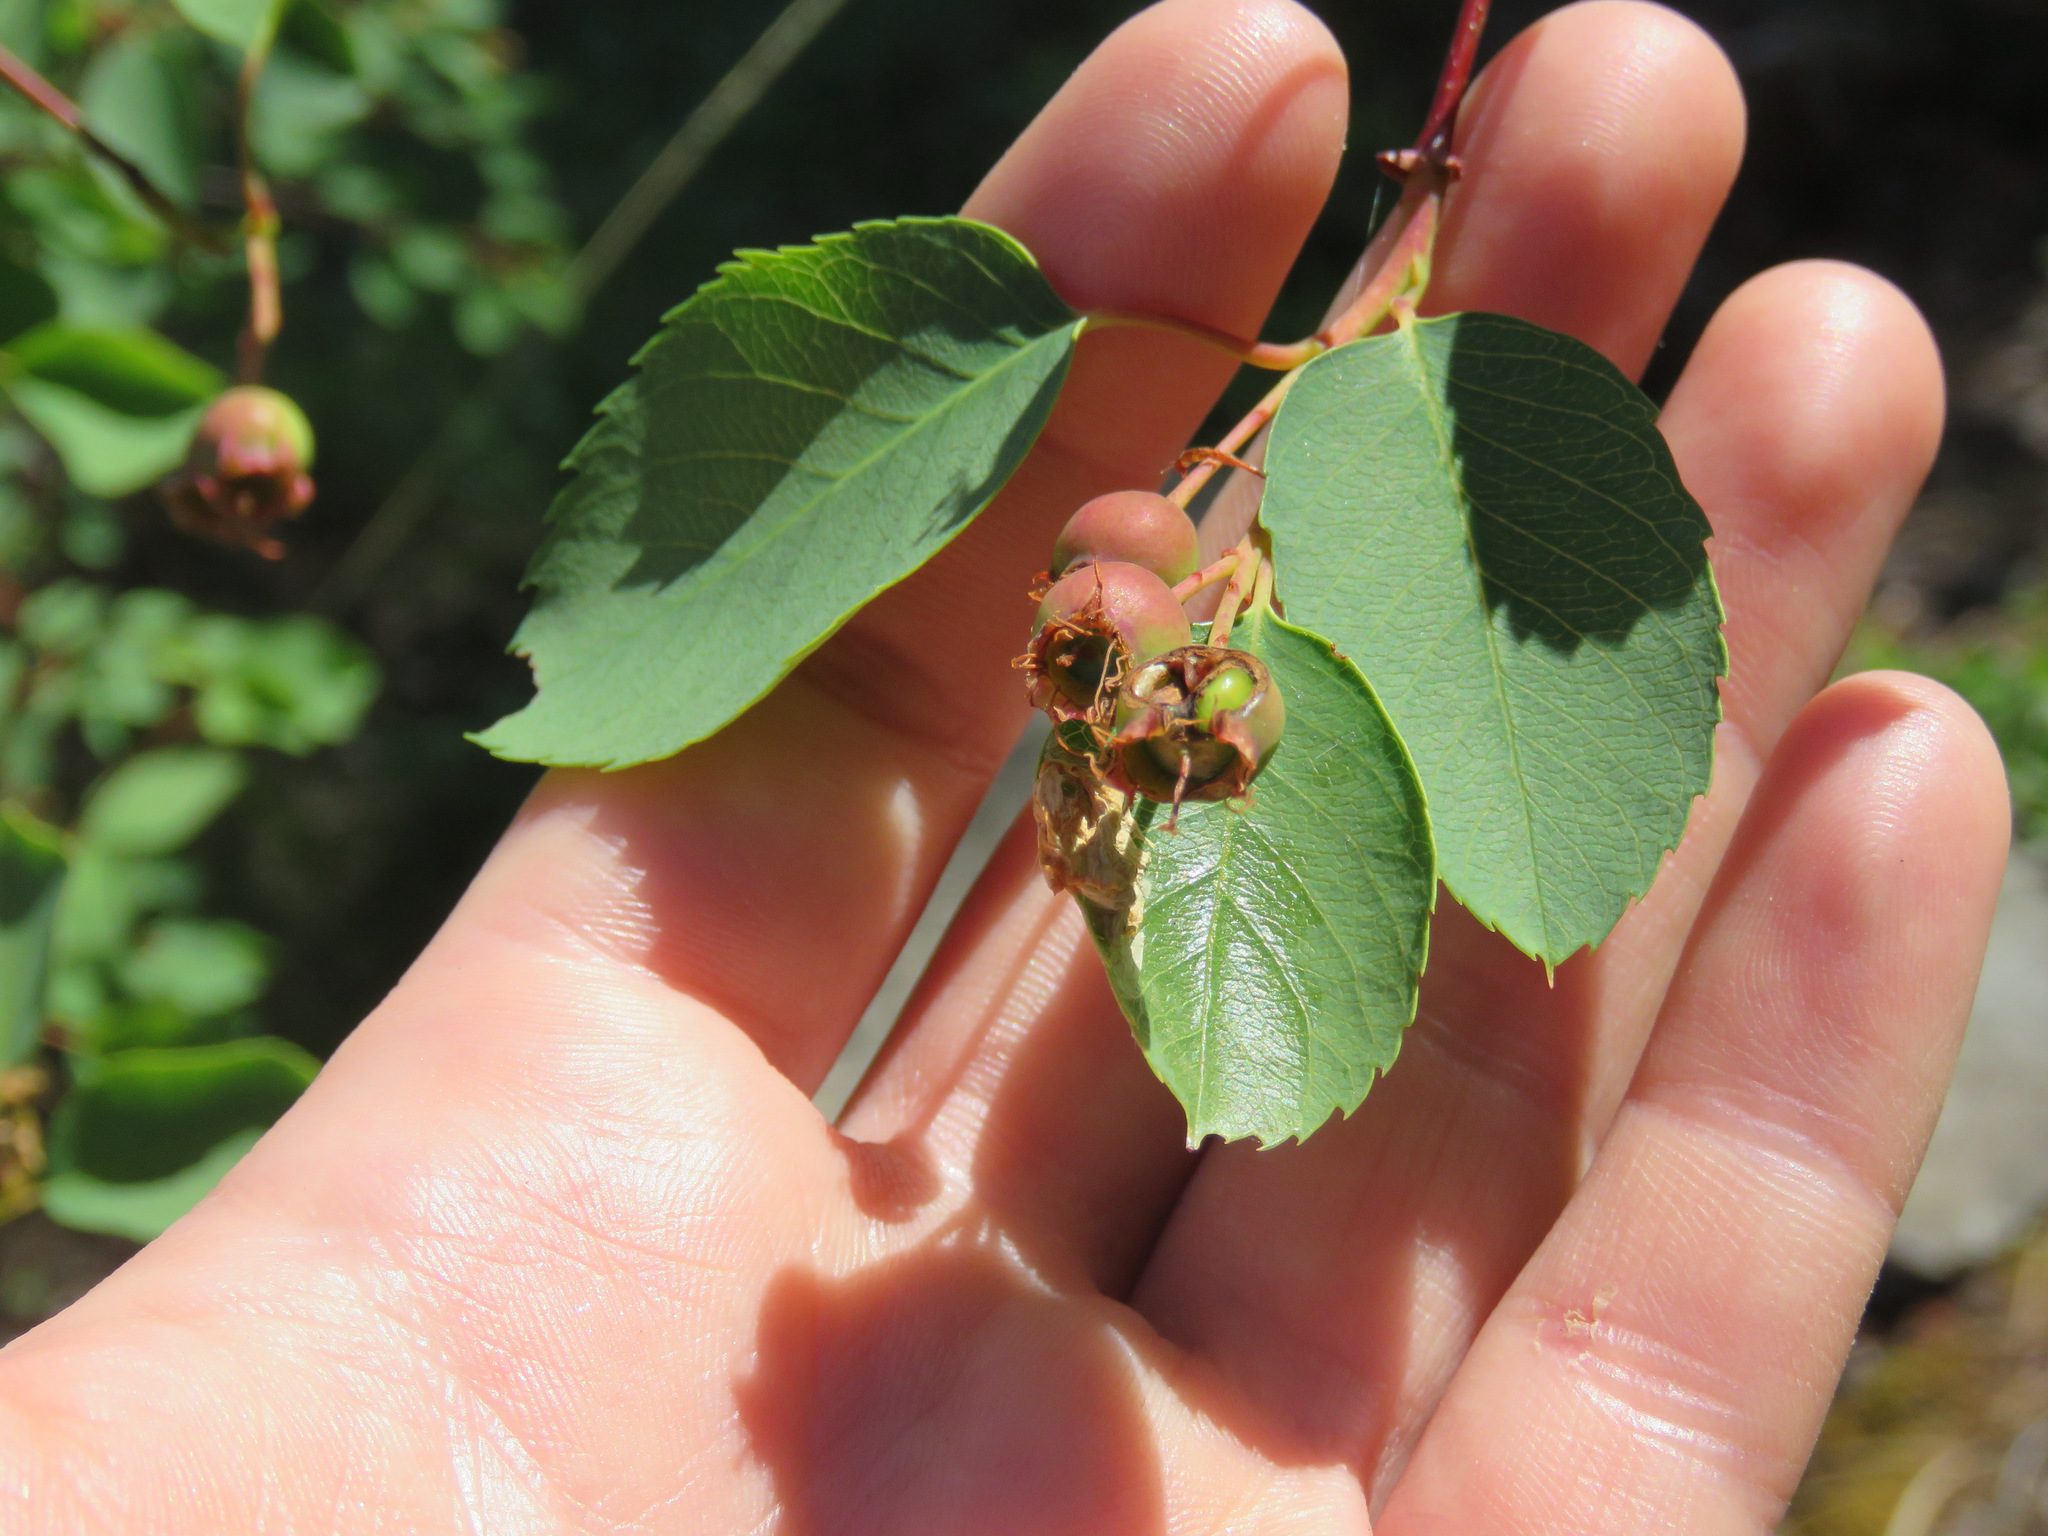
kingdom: Plantae
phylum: Tracheophyta
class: Magnoliopsida
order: Rosales
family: Rosaceae
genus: Amelanchier
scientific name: Amelanchier alnifolia
